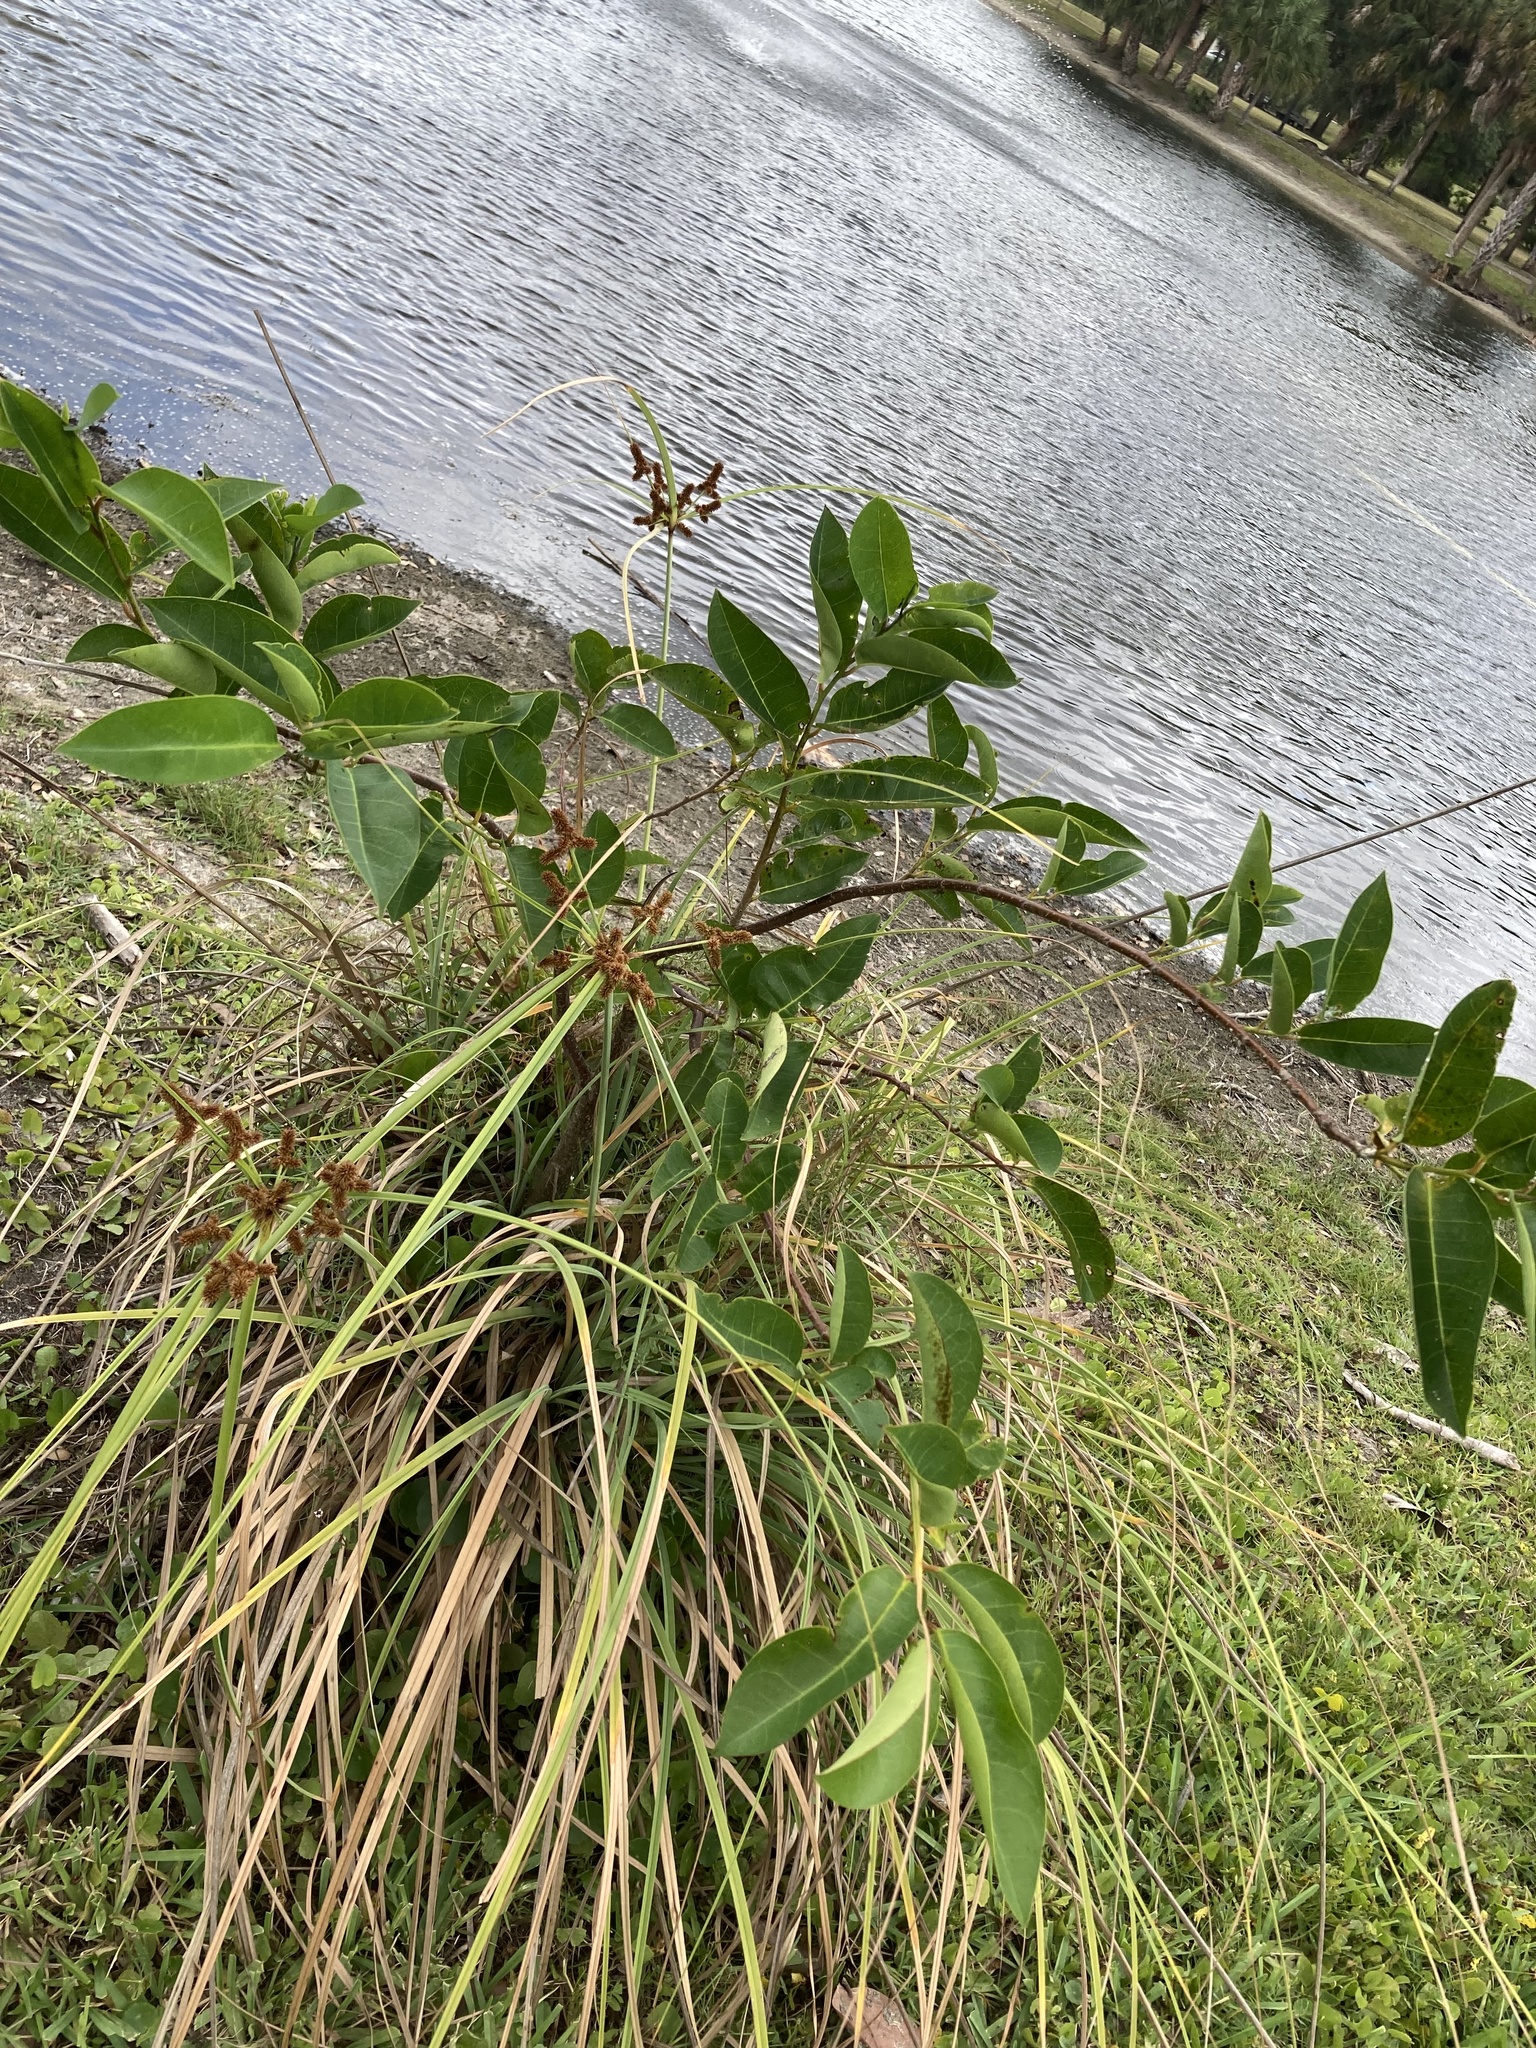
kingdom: Plantae
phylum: Tracheophyta
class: Magnoliopsida
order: Magnoliales
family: Annonaceae
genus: Annona
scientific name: Annona glabra
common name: Monkey apple
